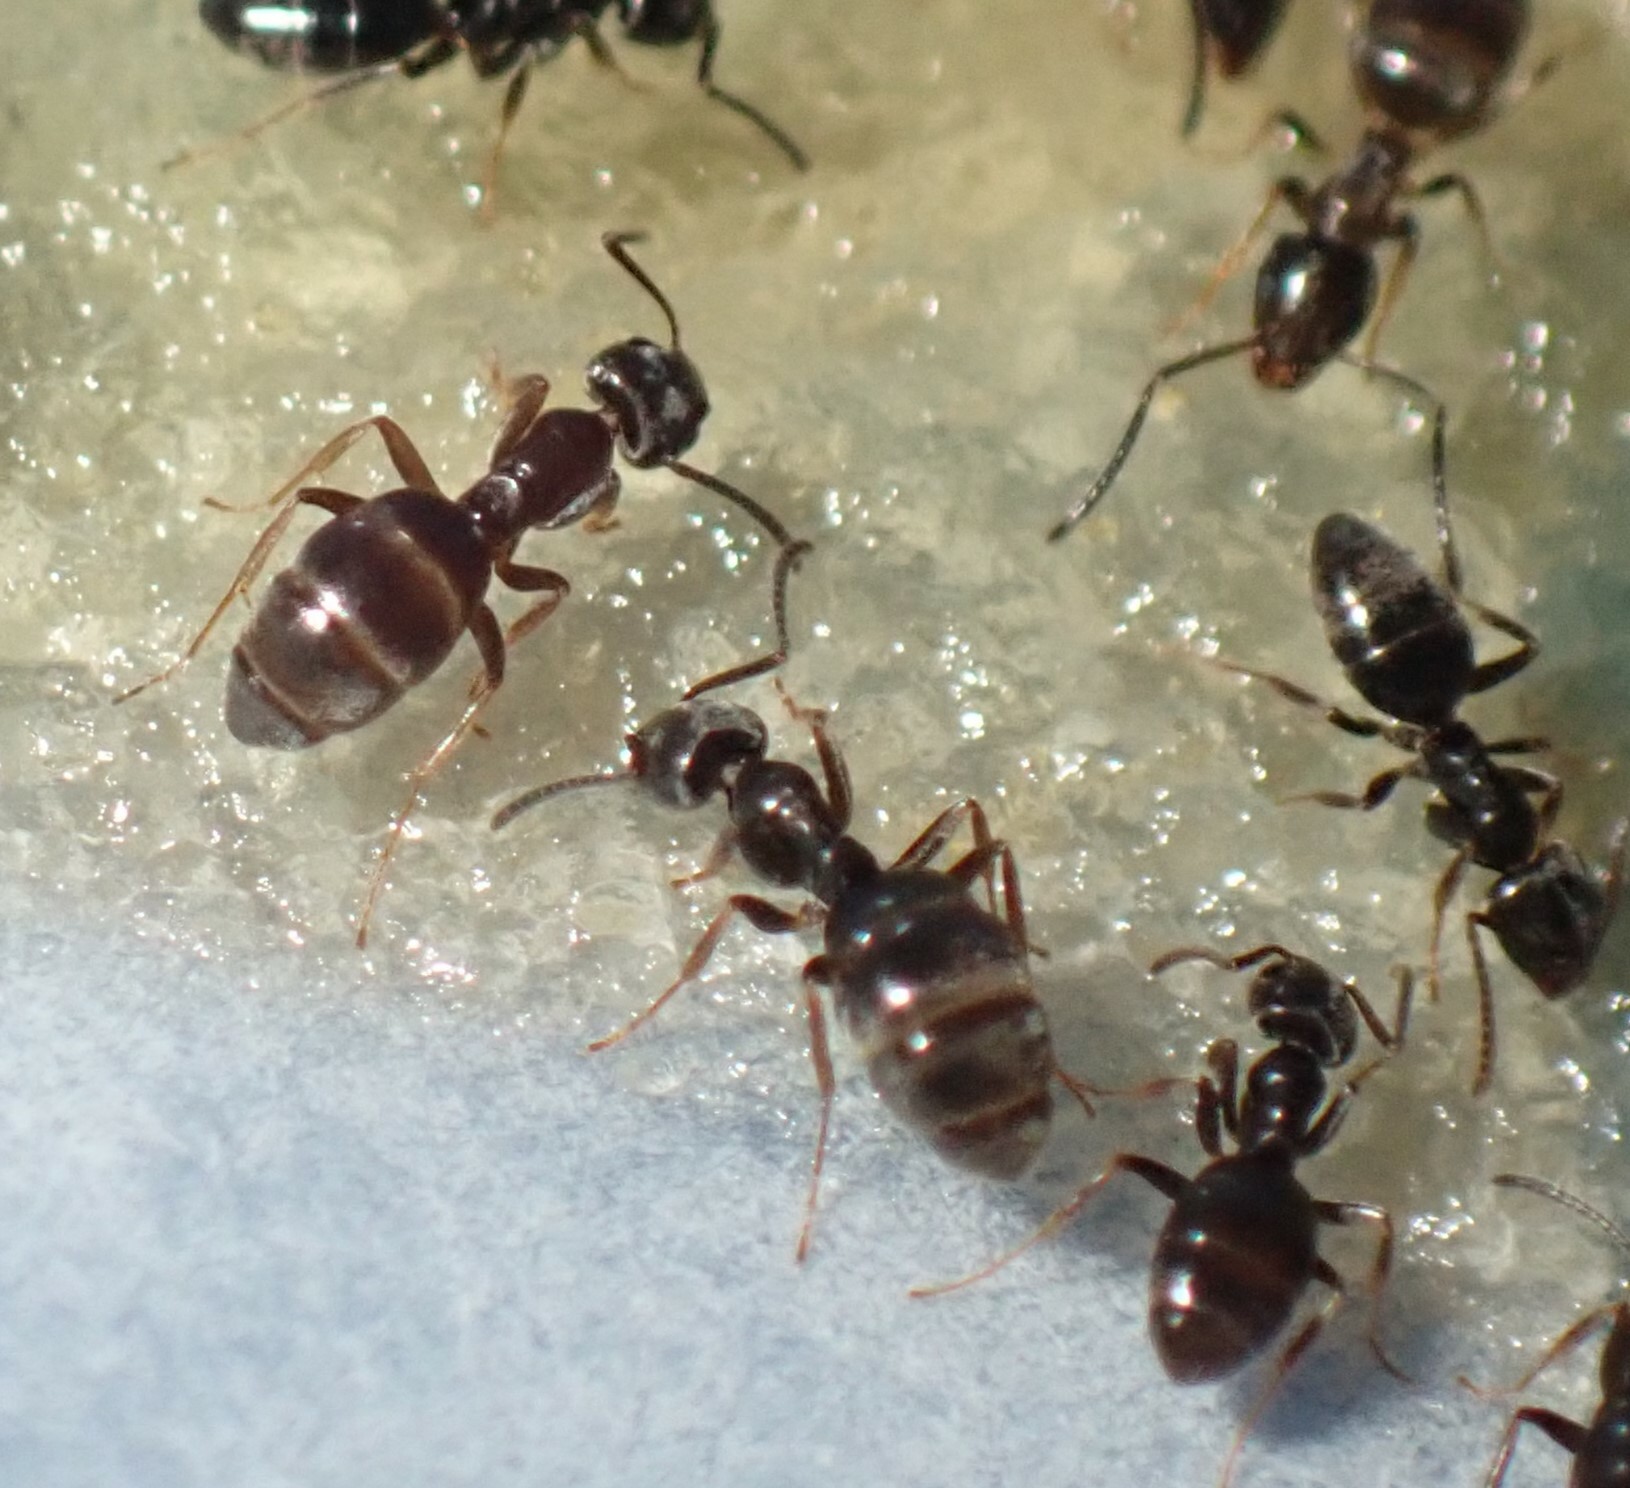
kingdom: Animalia
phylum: Arthropoda
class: Insecta
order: Hymenoptera
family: Formicidae
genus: Tapinoma
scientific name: Tapinoma sessile
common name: Odorous house ant
